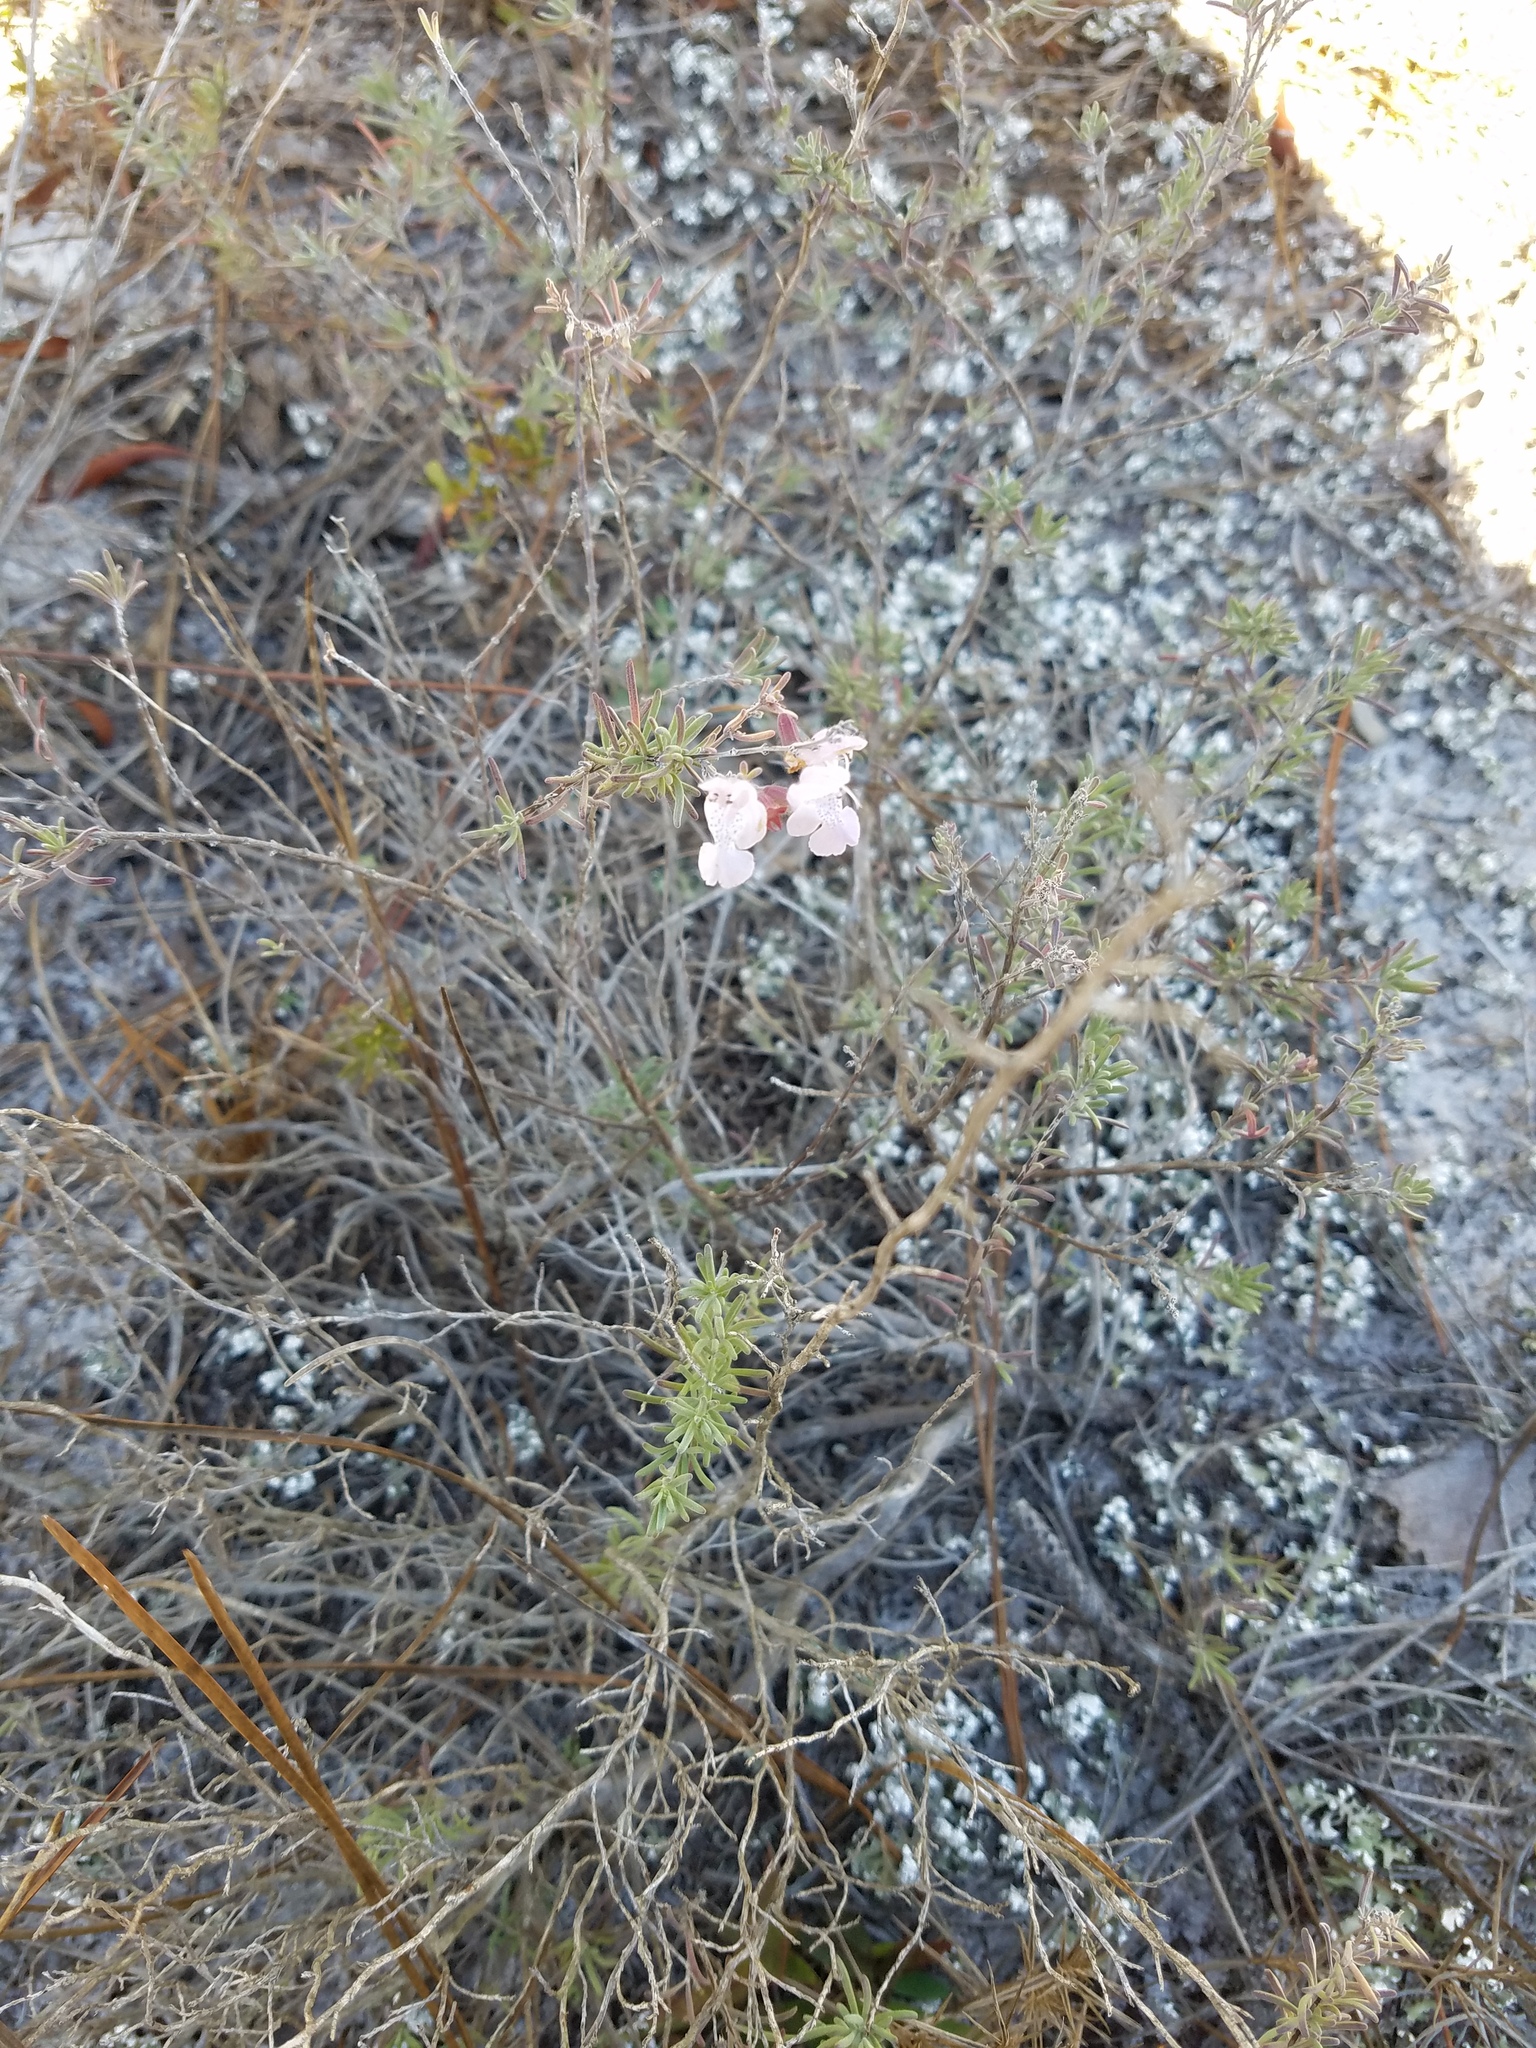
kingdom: Plantae
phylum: Tracheophyta
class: Magnoliopsida
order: Lamiales
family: Lamiaceae
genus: Conradina
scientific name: Conradina canescens
